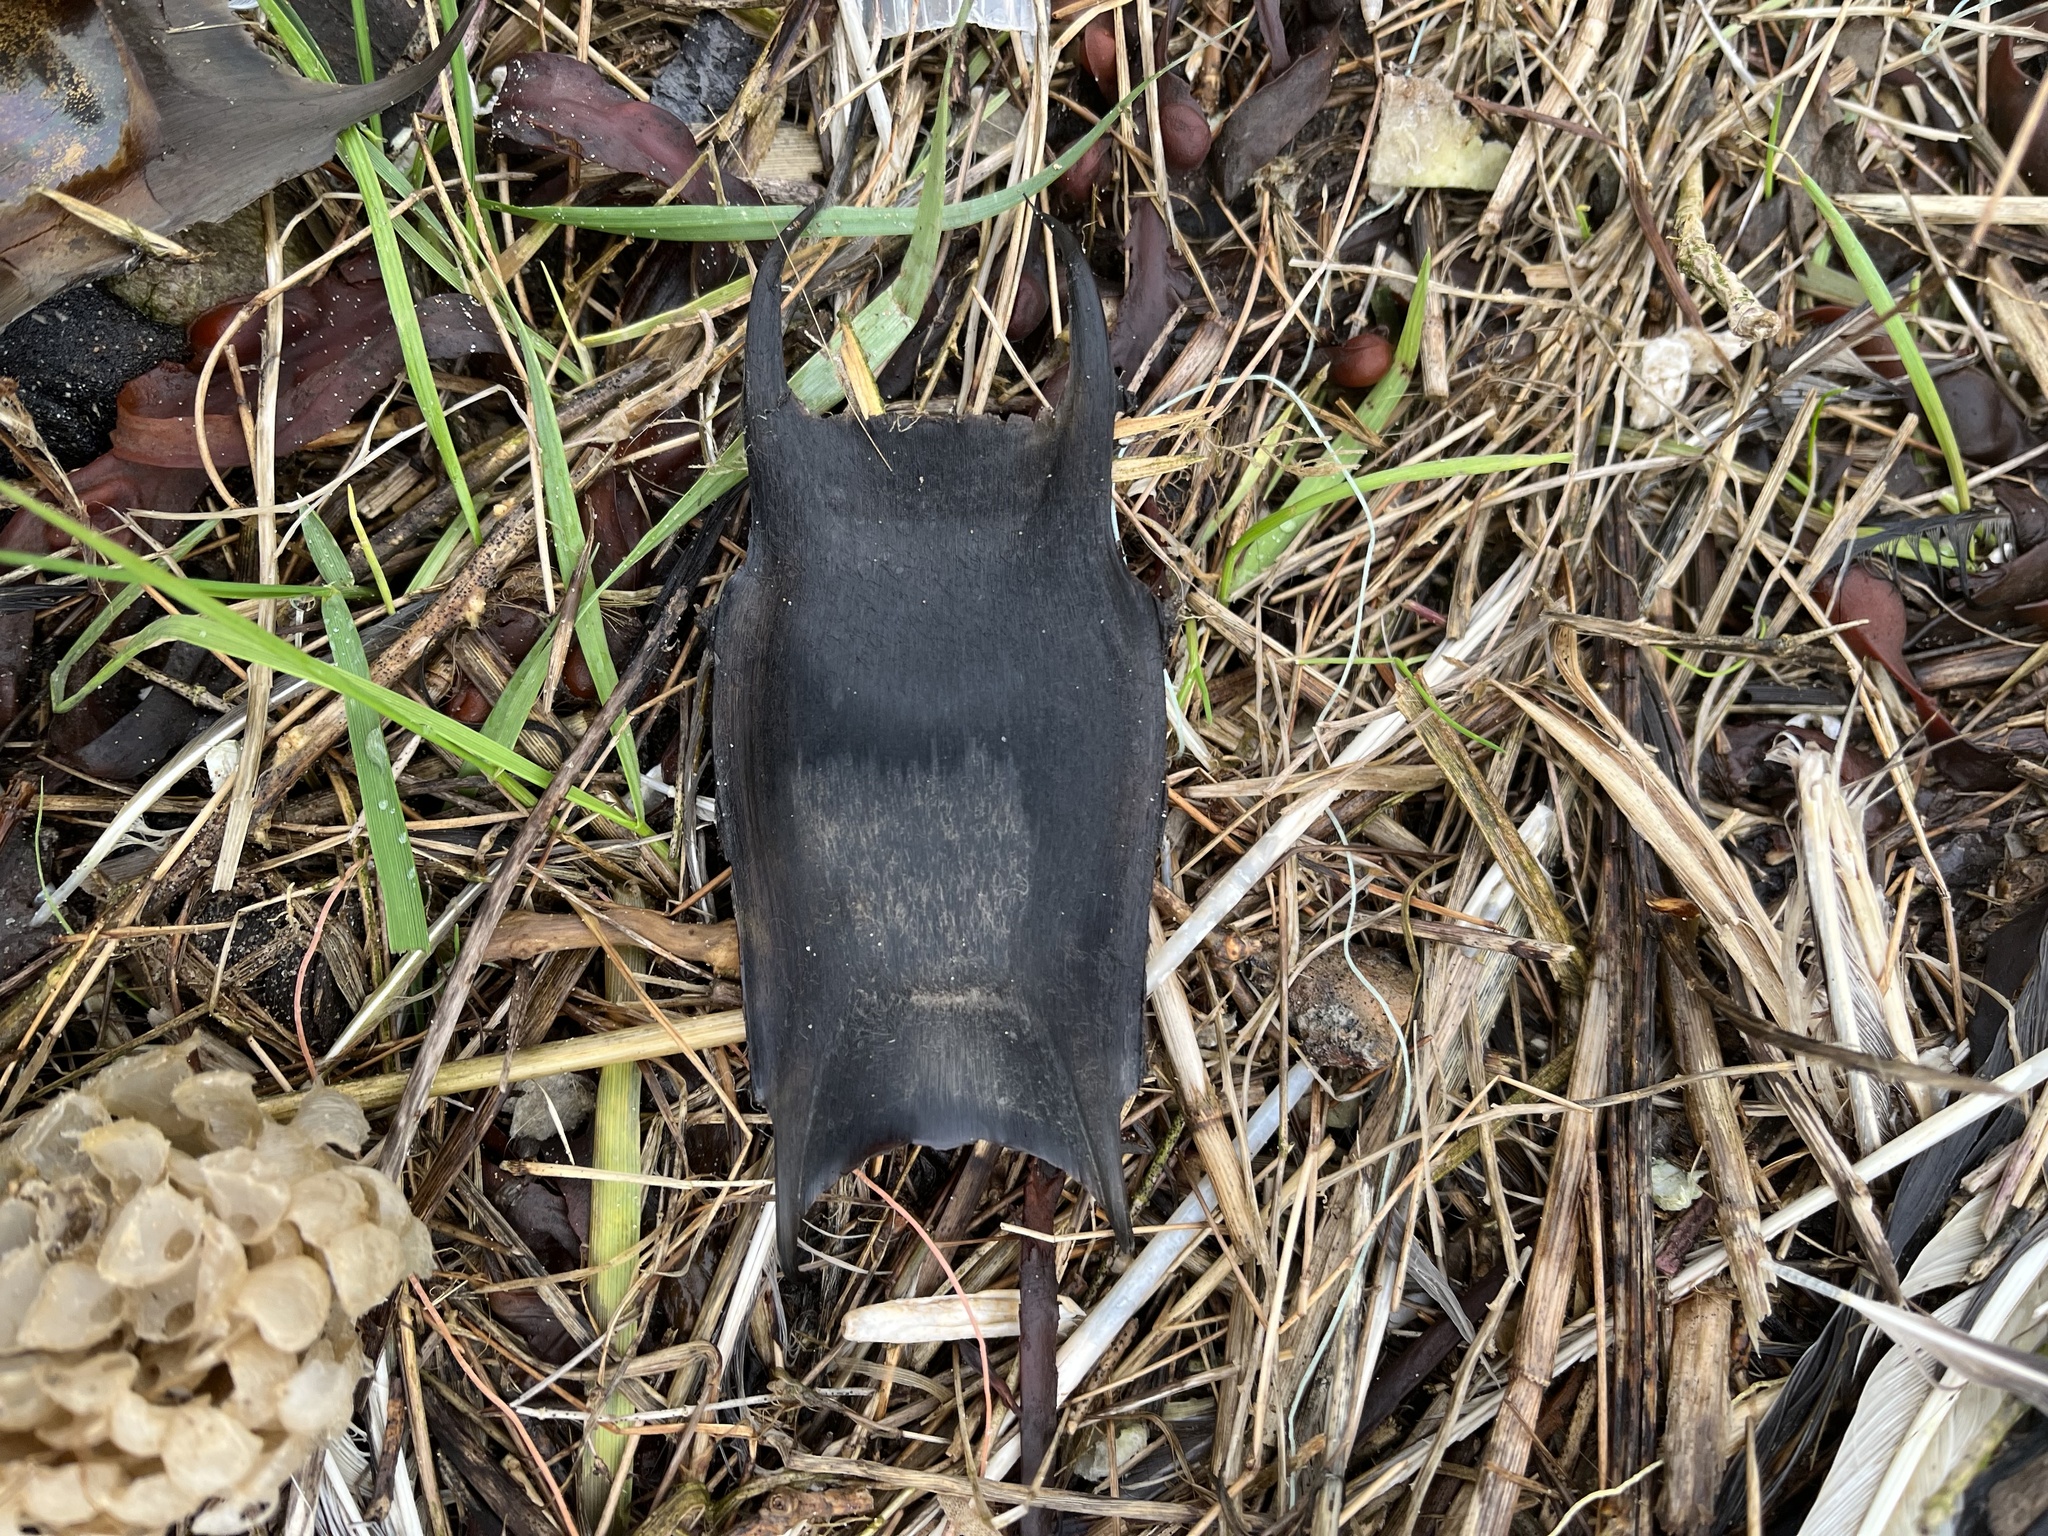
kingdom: Animalia
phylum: Chordata
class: Elasmobranchii
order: Rajiformes
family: Rajidae
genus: Raja
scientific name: Raja clavata
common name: Thornback ray
